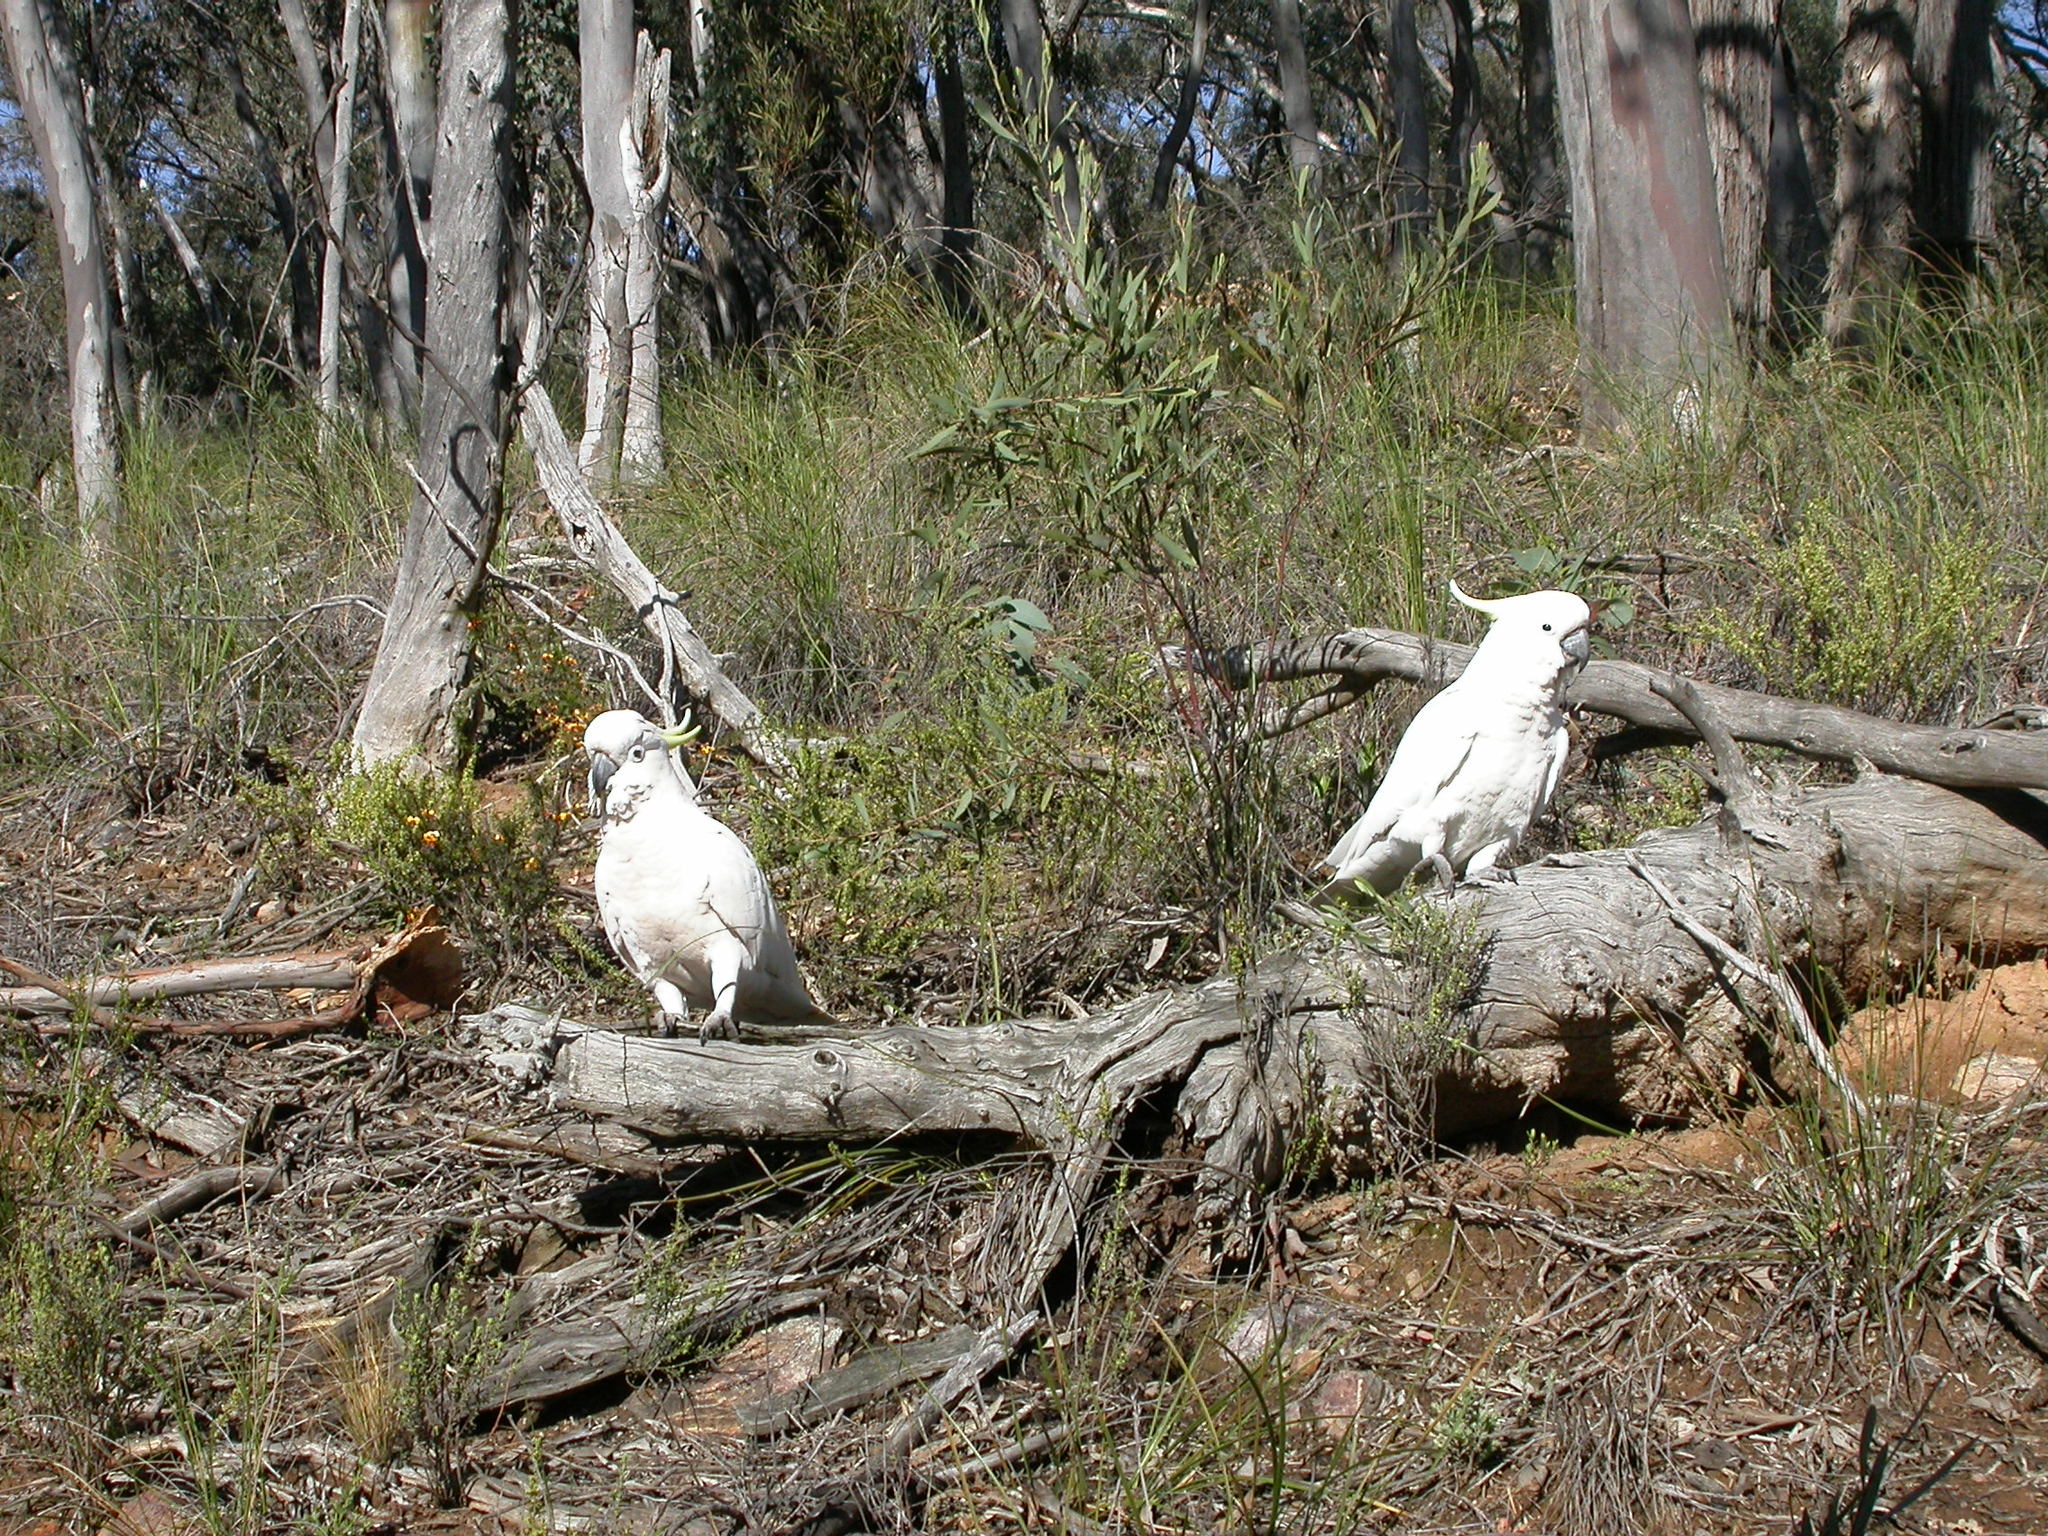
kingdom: Animalia
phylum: Chordata
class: Aves
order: Psittaciformes
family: Psittacidae
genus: Cacatua
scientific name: Cacatua galerita
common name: Sulphur-crested cockatoo
